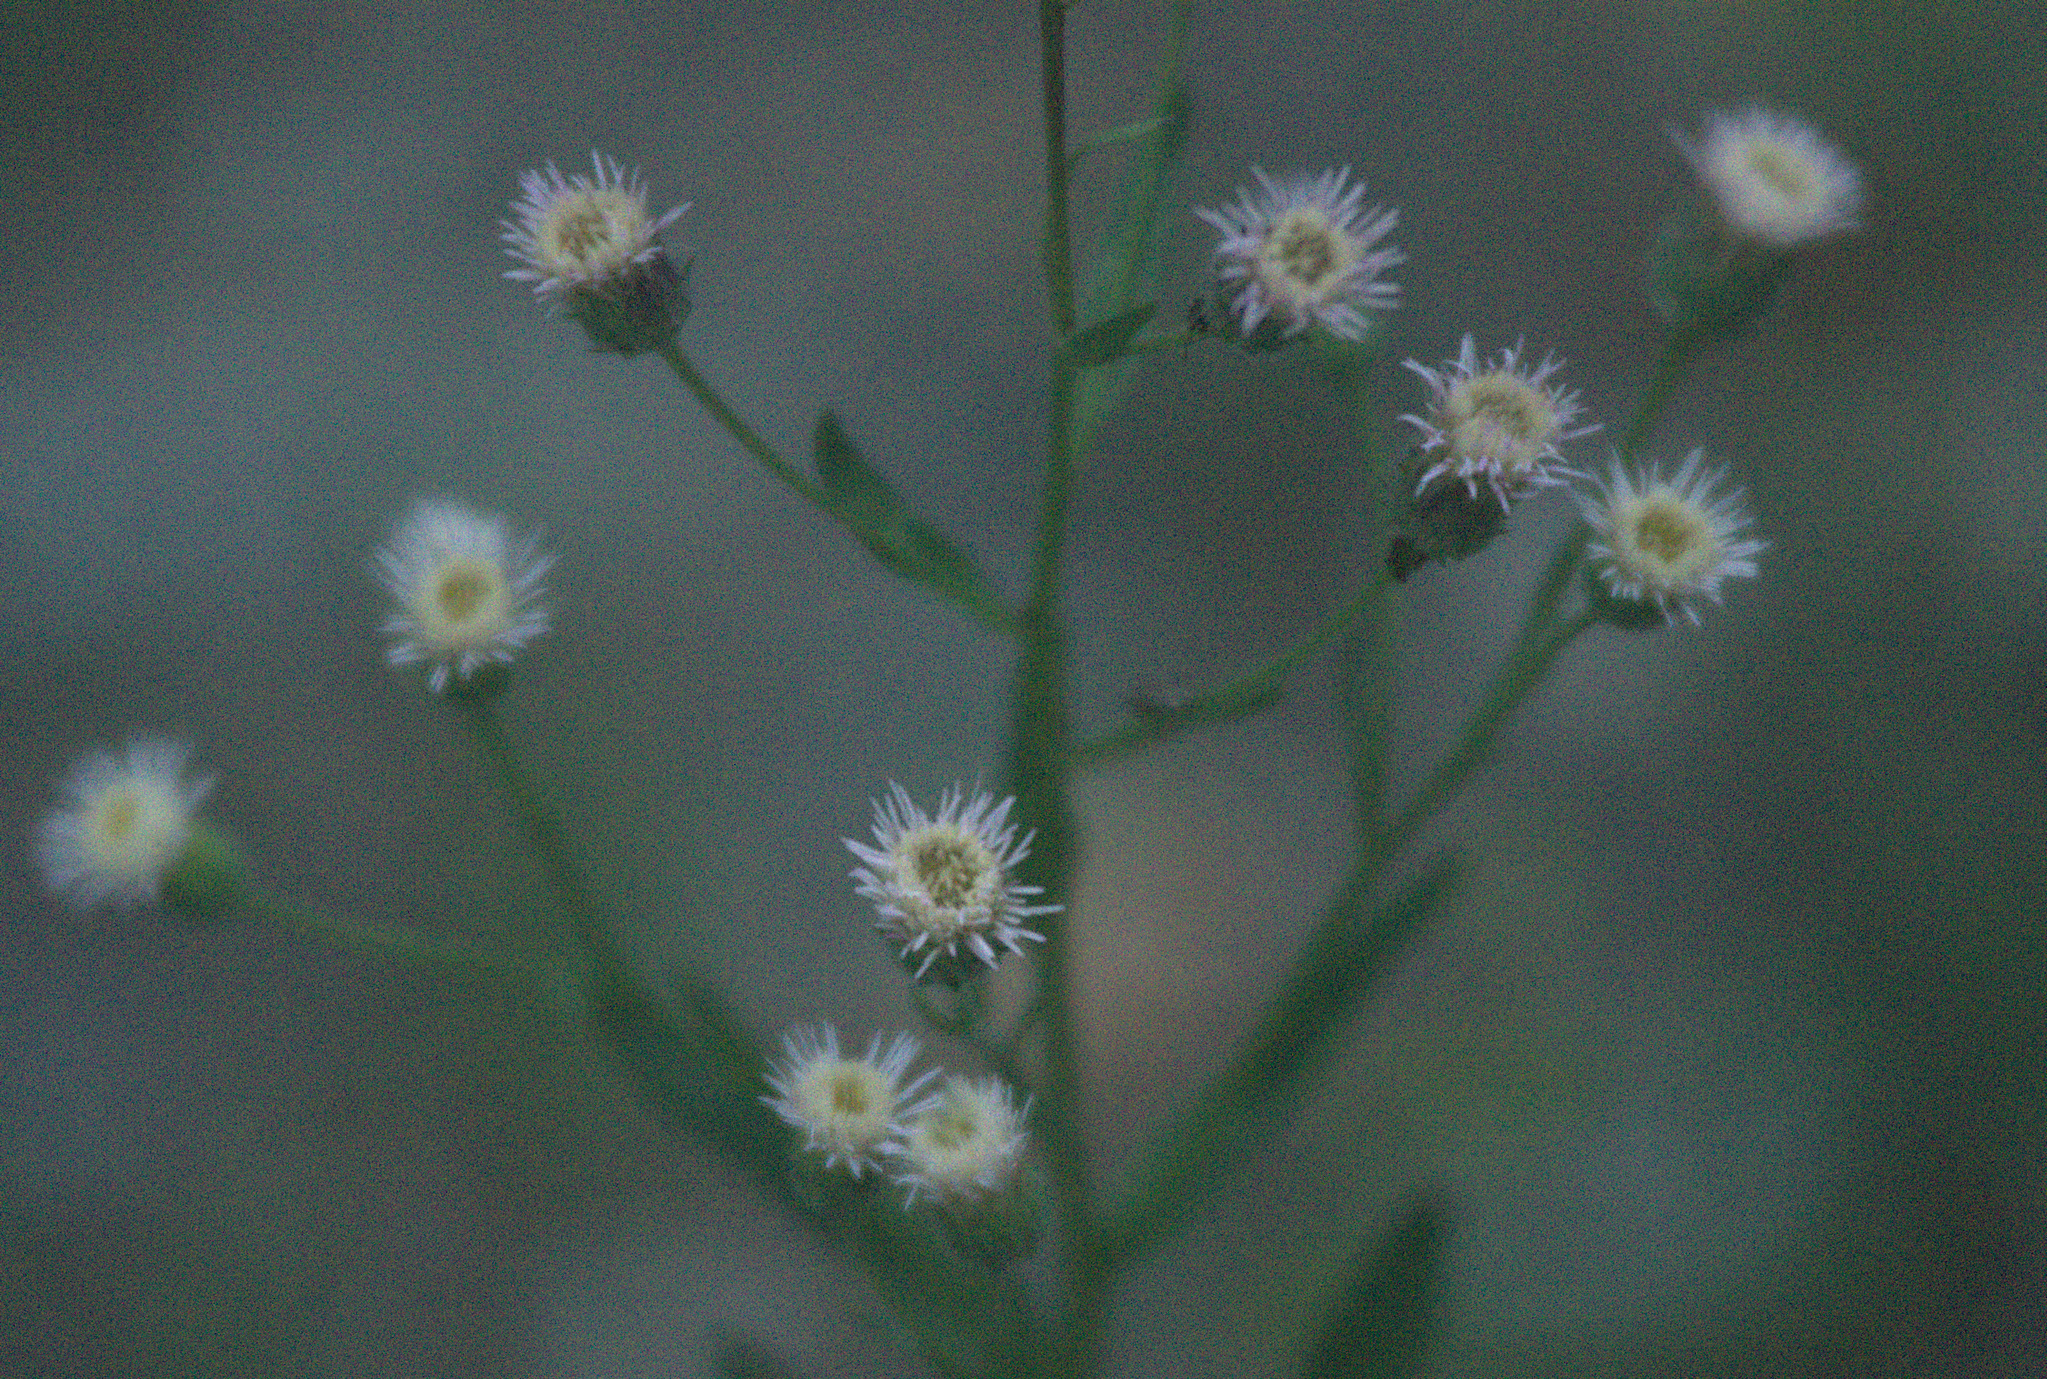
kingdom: Plantae
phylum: Tracheophyta
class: Magnoliopsida
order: Asterales
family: Asteraceae
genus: Erigeron
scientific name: Erigeron acris
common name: Blue fleabane
